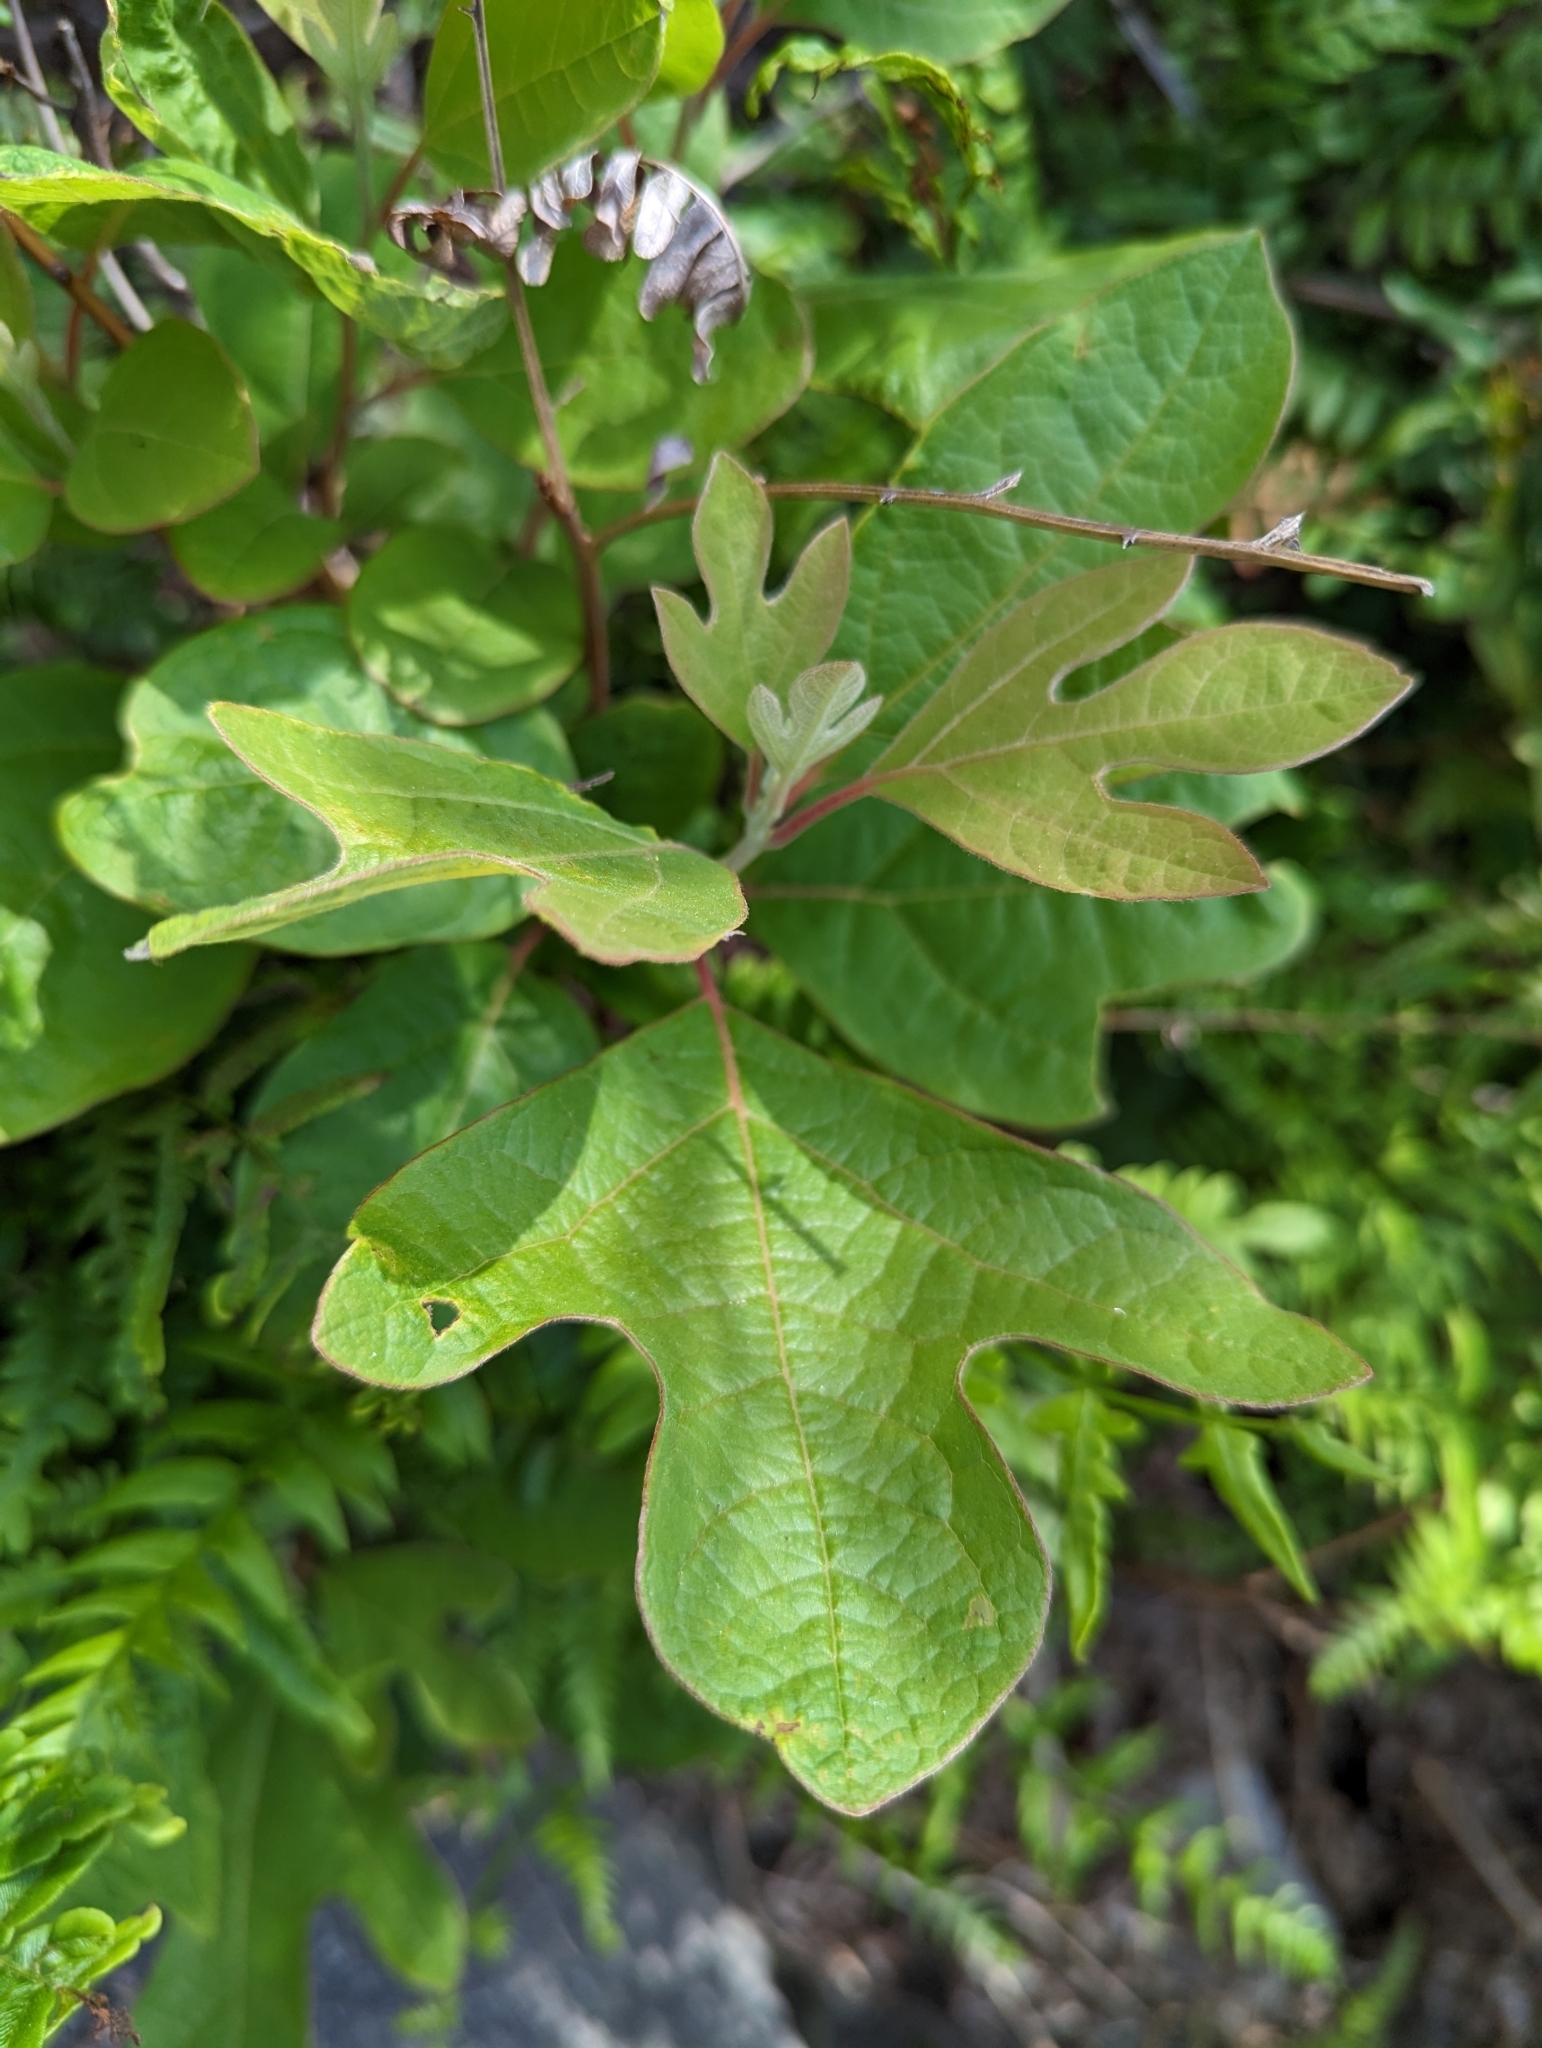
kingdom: Plantae
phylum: Tracheophyta
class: Magnoliopsida
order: Laurales
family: Lauraceae
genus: Sassafras
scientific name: Sassafras albidum
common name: Sassafras
